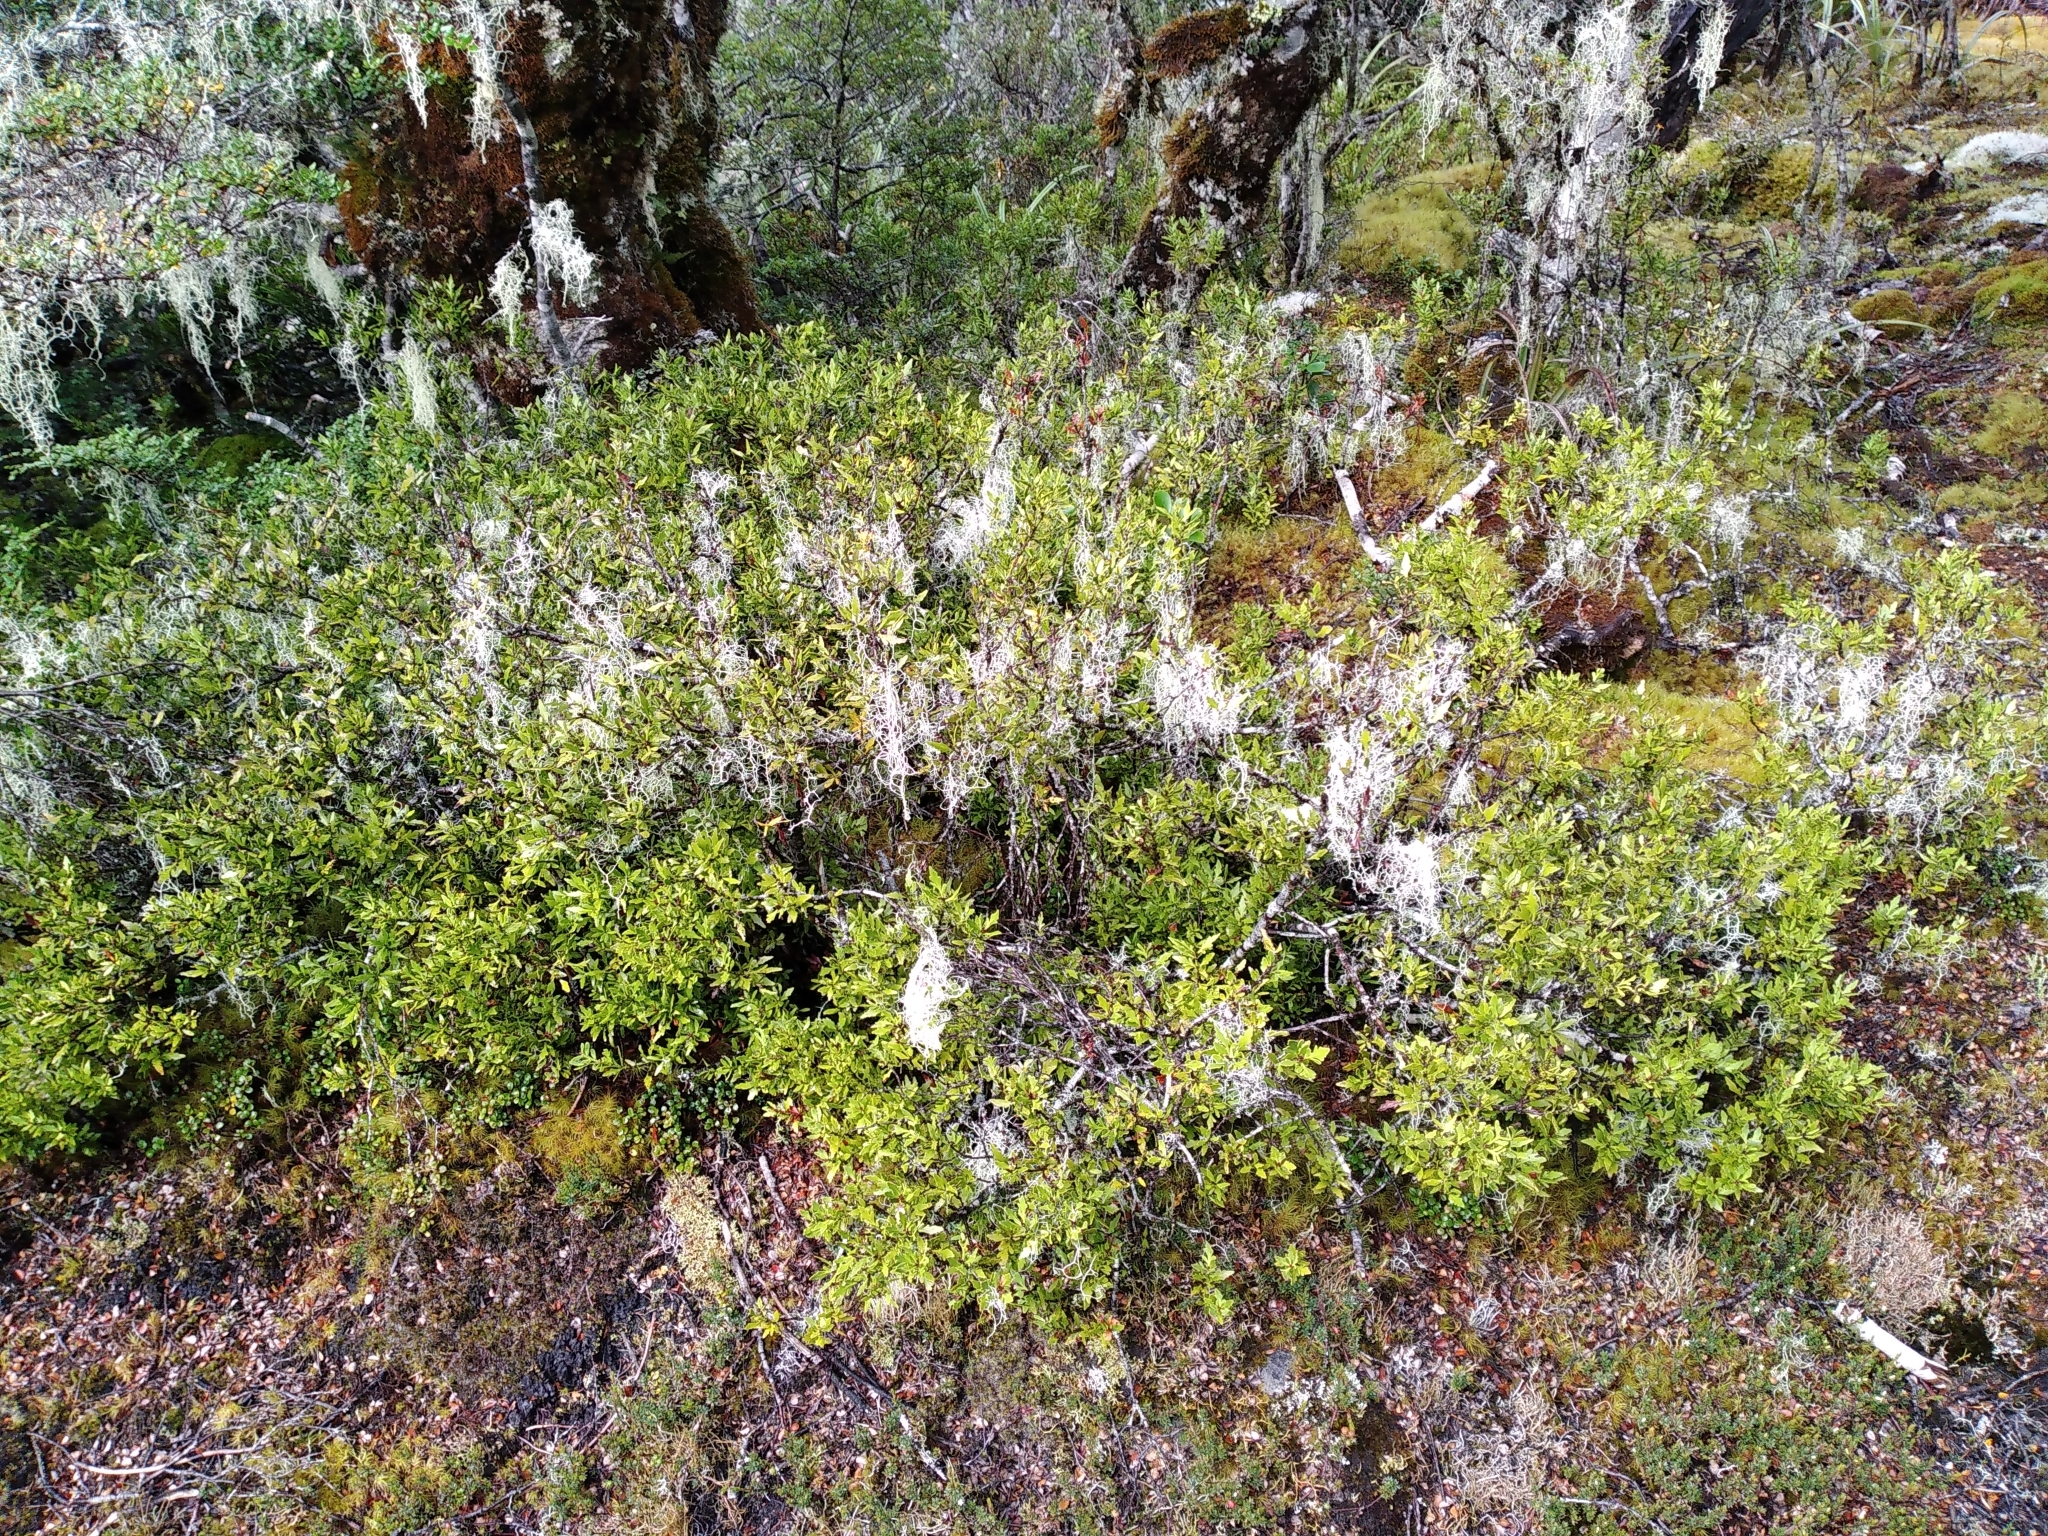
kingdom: Plantae
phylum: Tracheophyta
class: Pinopsida
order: Pinales
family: Phyllocladaceae
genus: Phyllocladus
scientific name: Phyllocladus trichomanoides
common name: Celery pine
